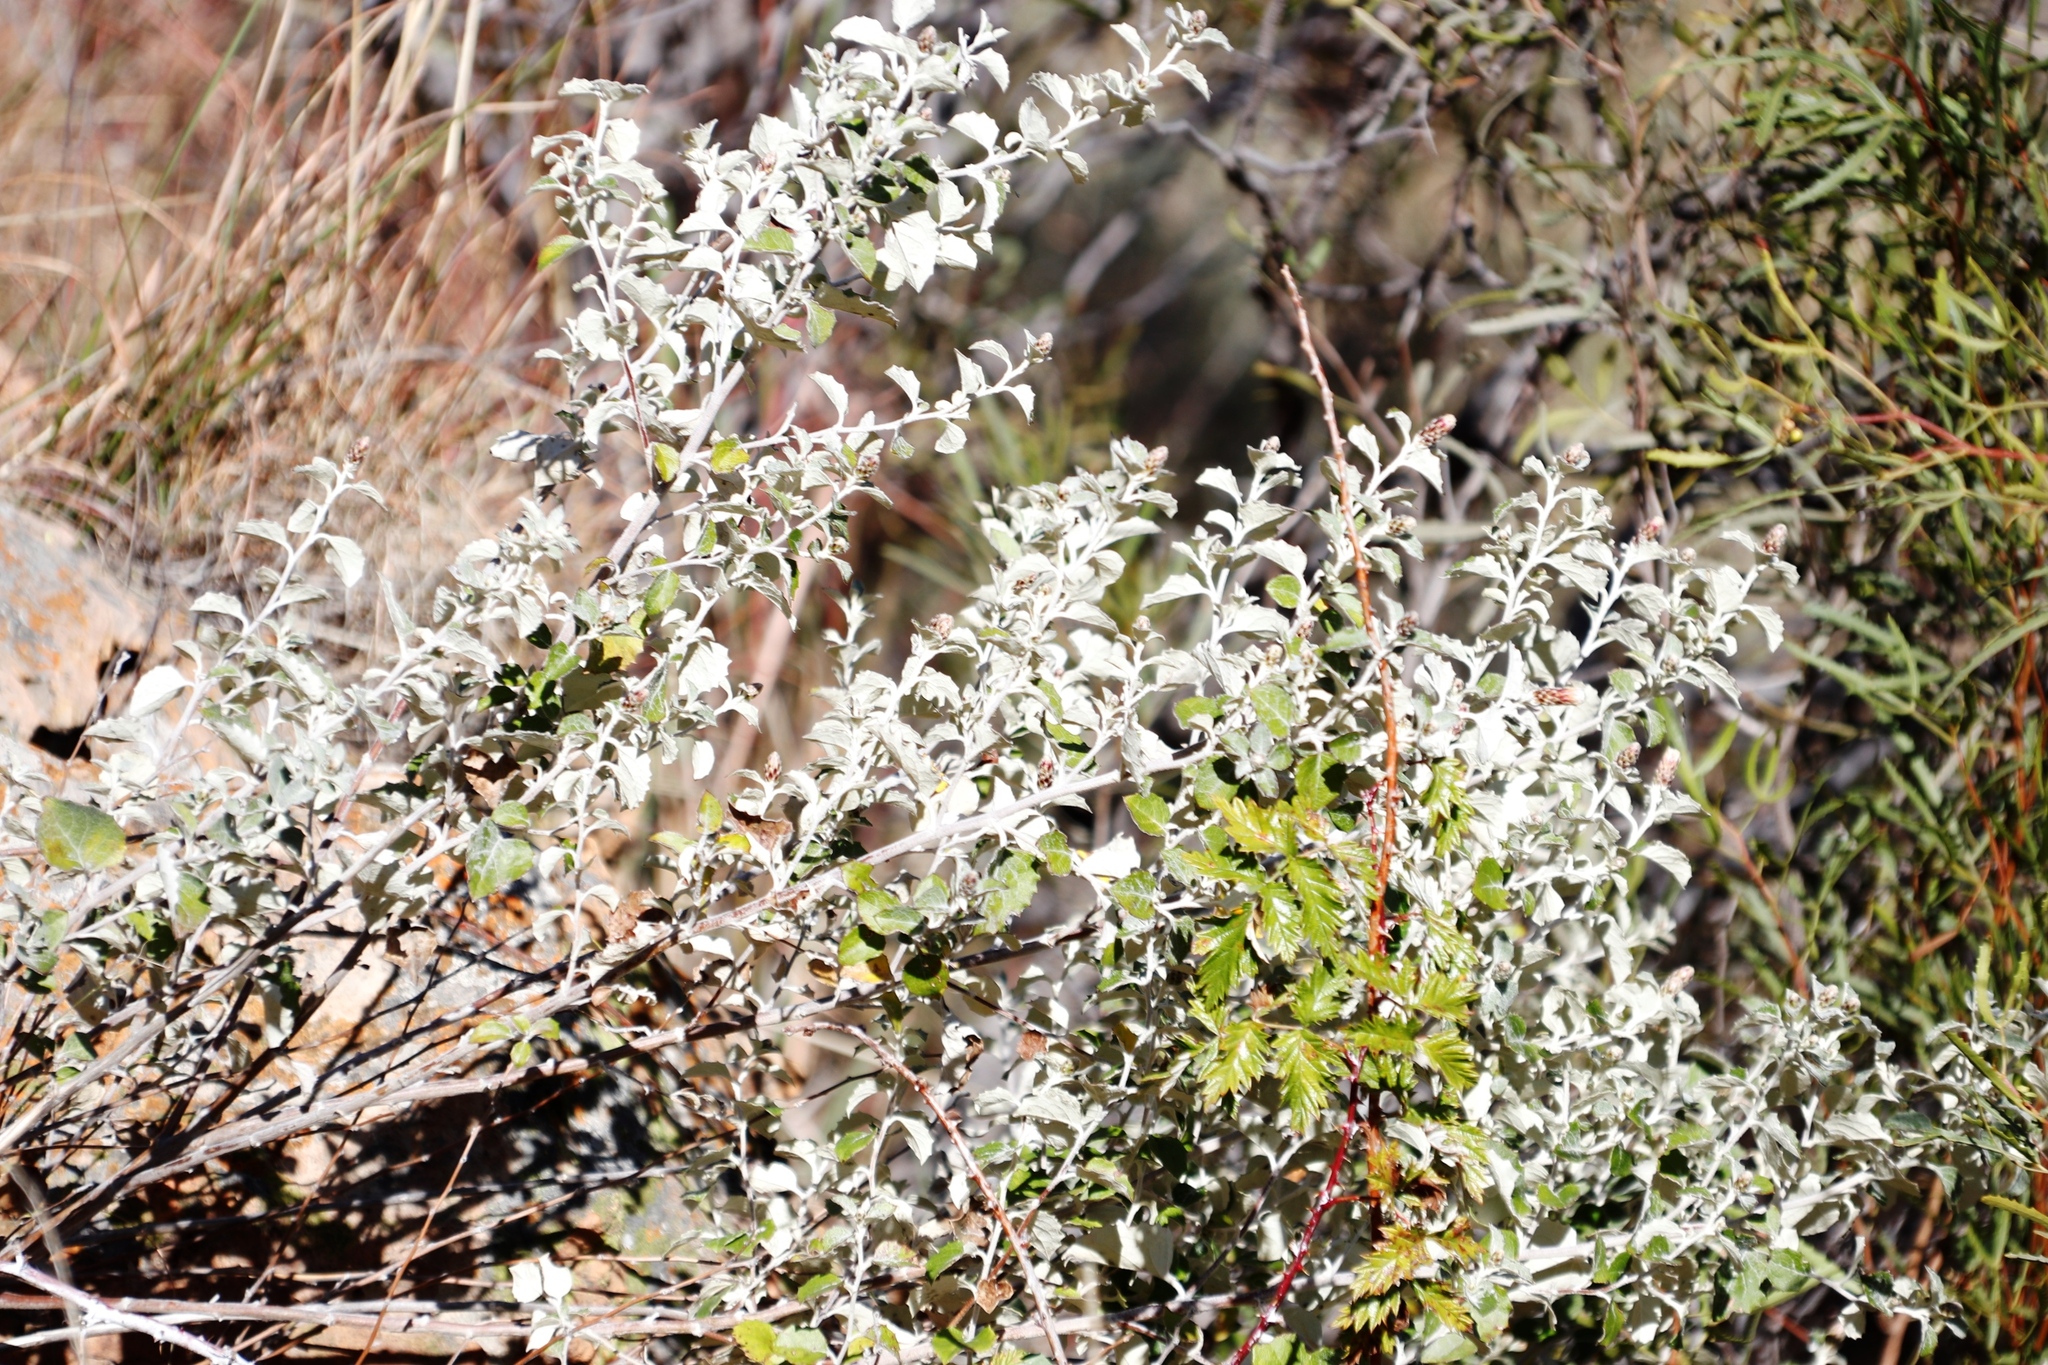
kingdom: Plantae
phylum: Tracheophyta
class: Magnoliopsida
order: Asterales
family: Asteraceae
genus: Printzia
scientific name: Printzia pyrifolia
